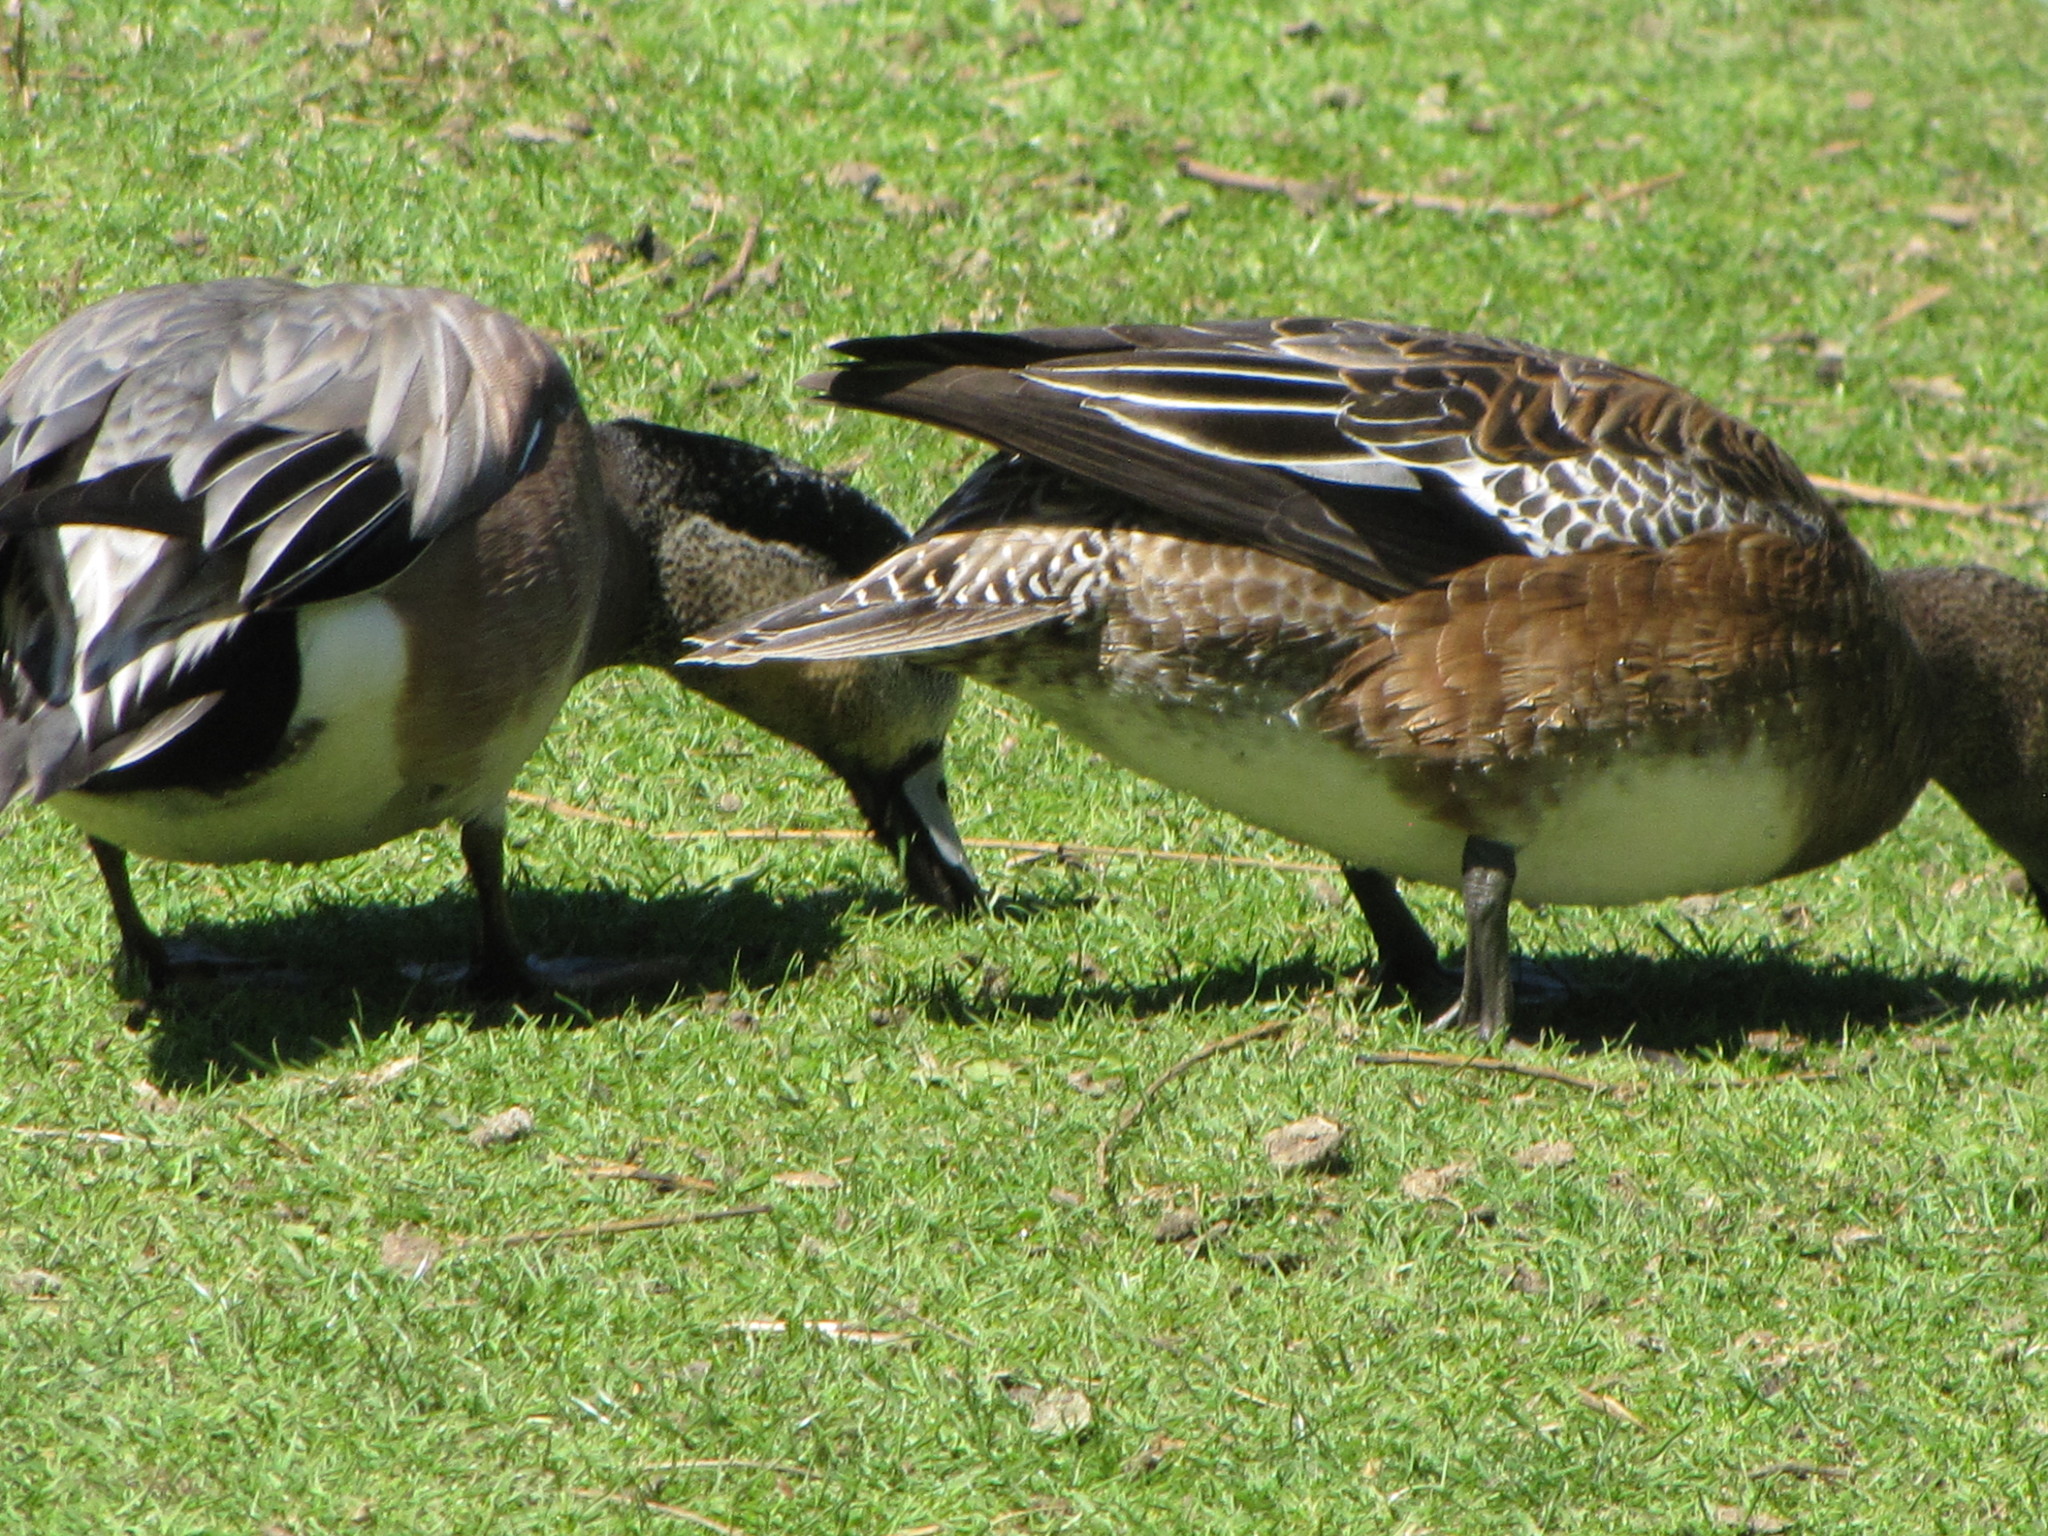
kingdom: Animalia
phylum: Chordata
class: Aves
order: Anseriformes
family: Anatidae
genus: Mareca
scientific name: Mareca americana
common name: American wigeon
